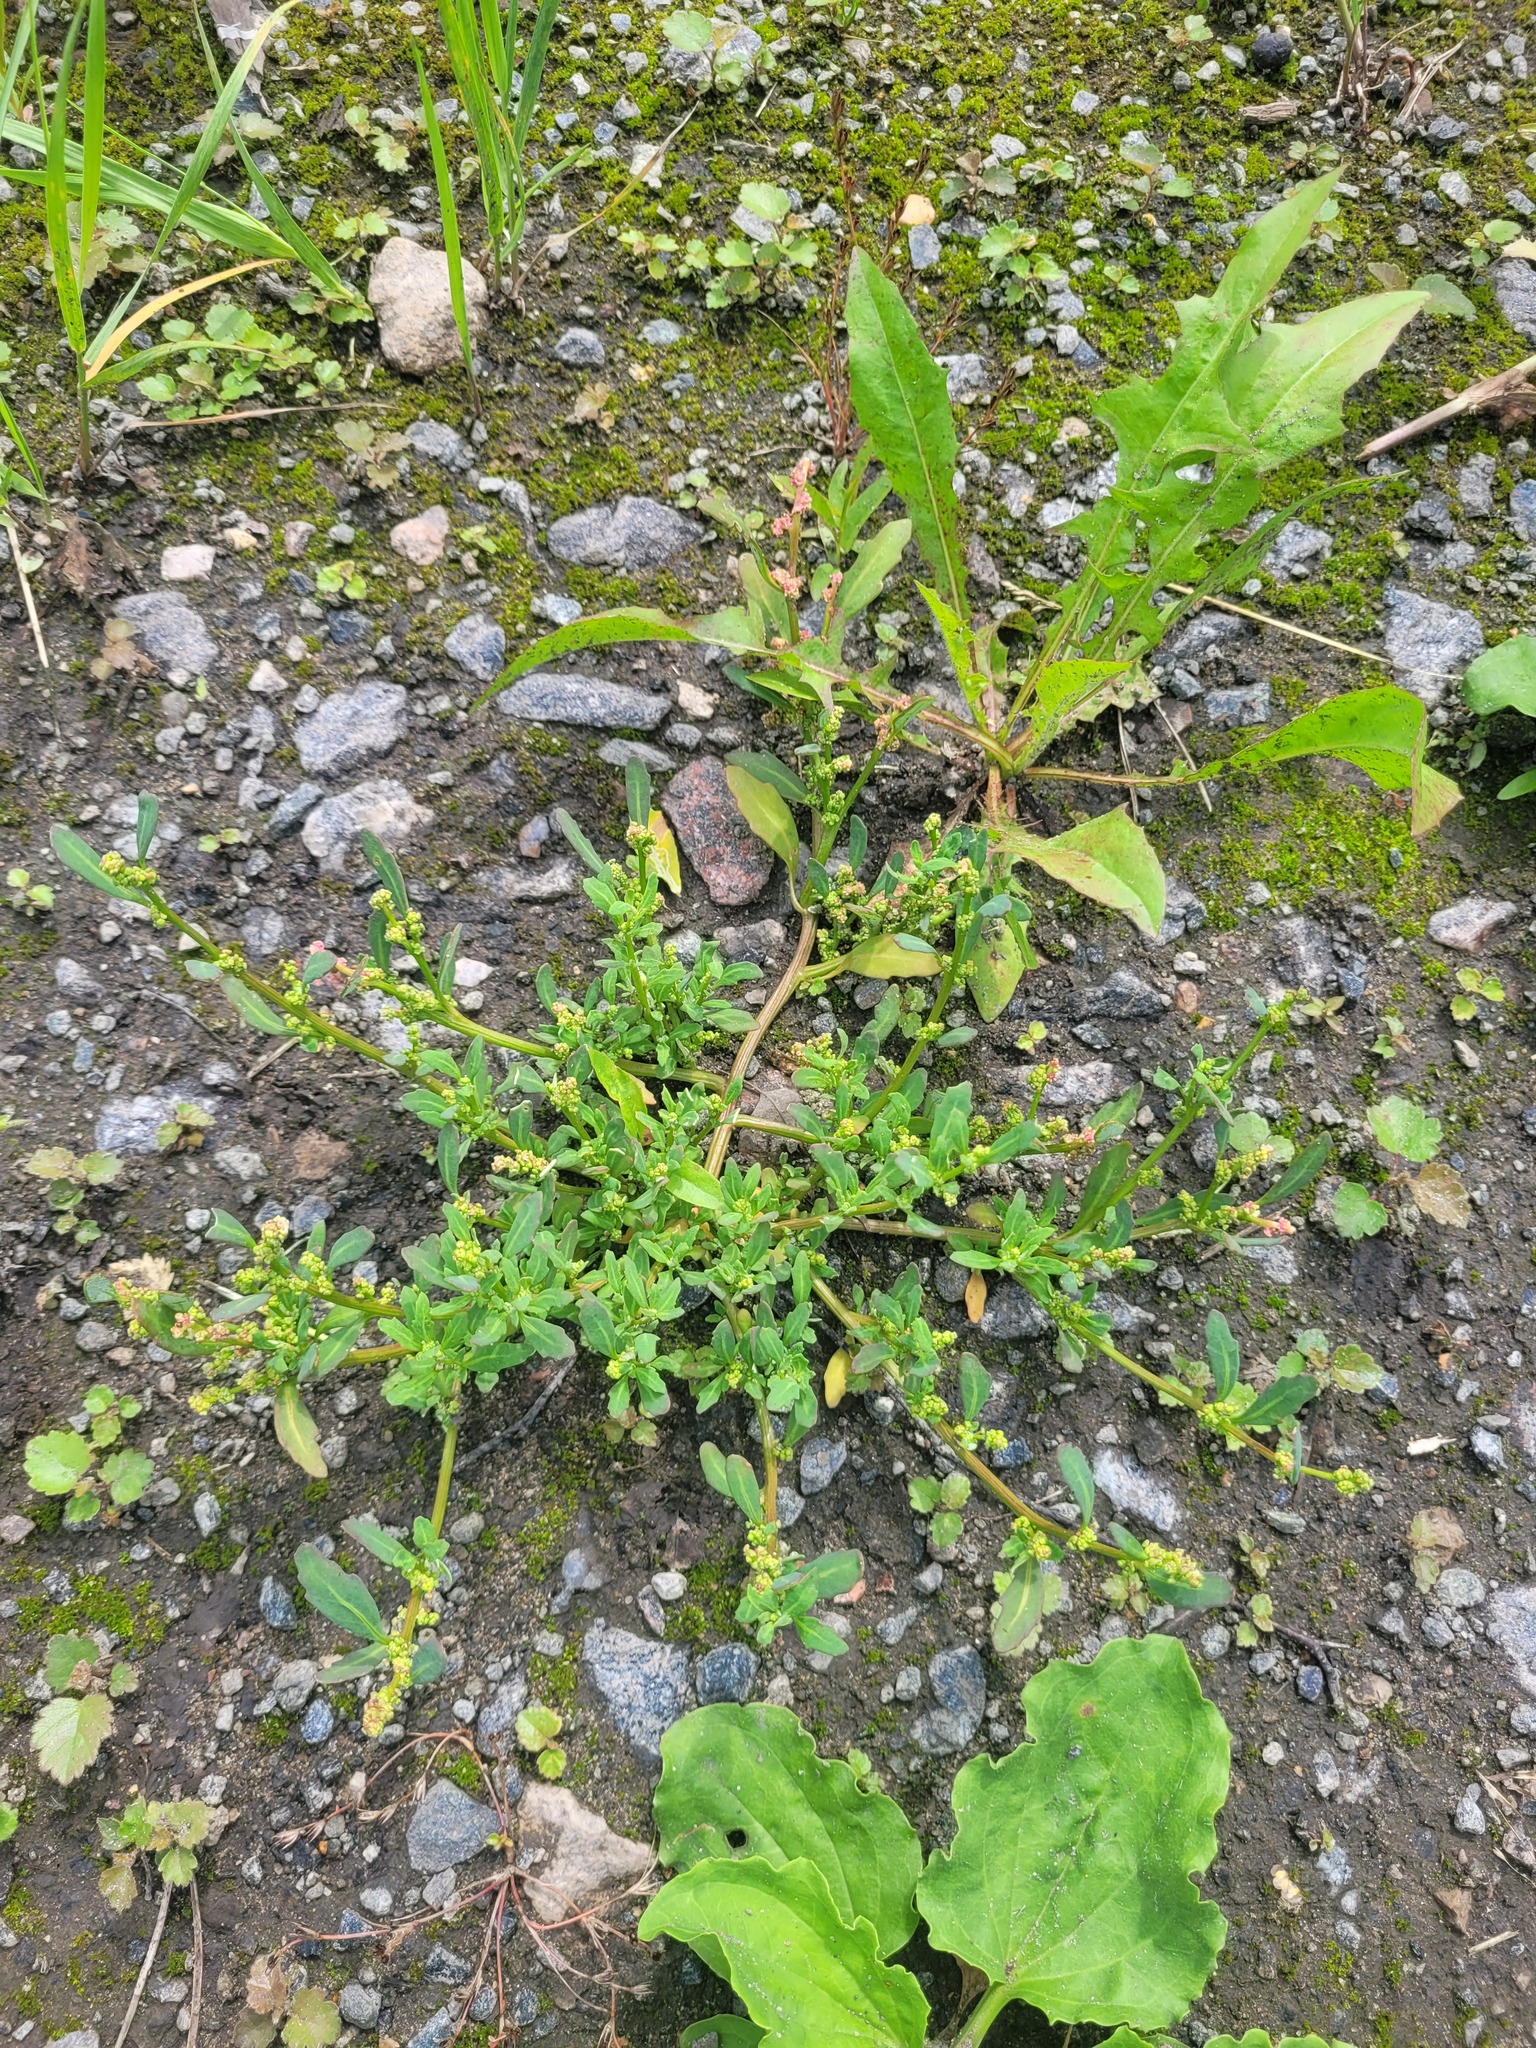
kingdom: Plantae
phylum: Tracheophyta
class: Magnoliopsida
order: Caryophyllales
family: Amaranthaceae
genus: Oxybasis
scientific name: Oxybasis glauca
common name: Glaucous goosefoot
